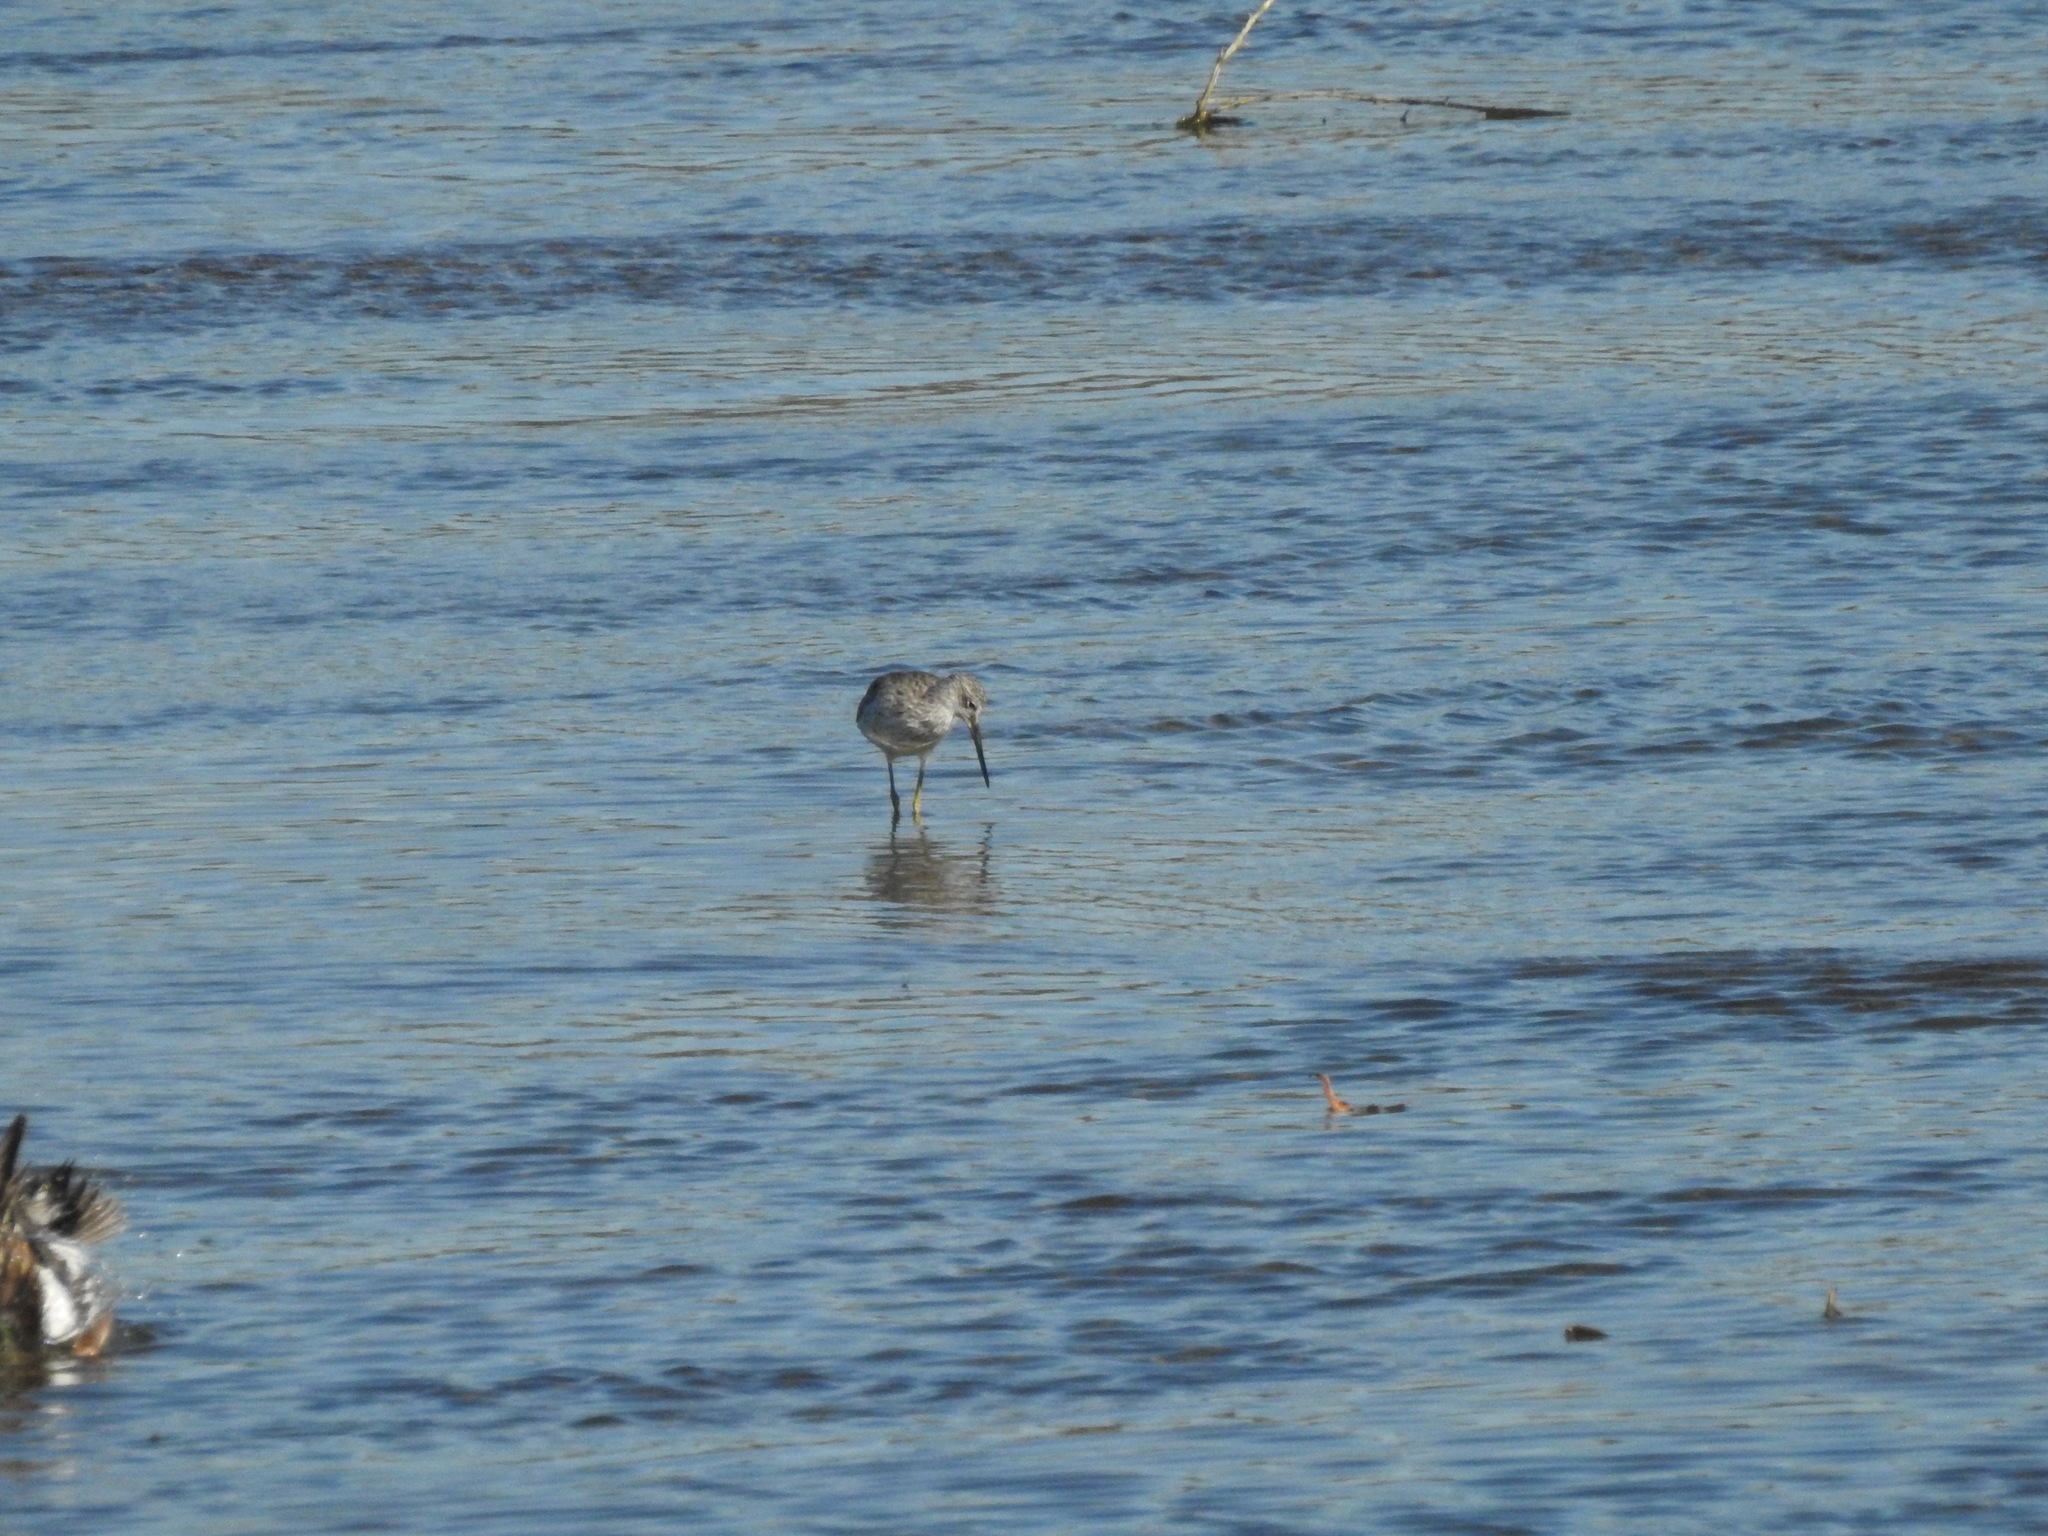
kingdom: Animalia
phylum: Chordata
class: Aves
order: Charadriiformes
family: Scolopacidae
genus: Tringa
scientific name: Tringa melanoleuca
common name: Greater yellowlegs
